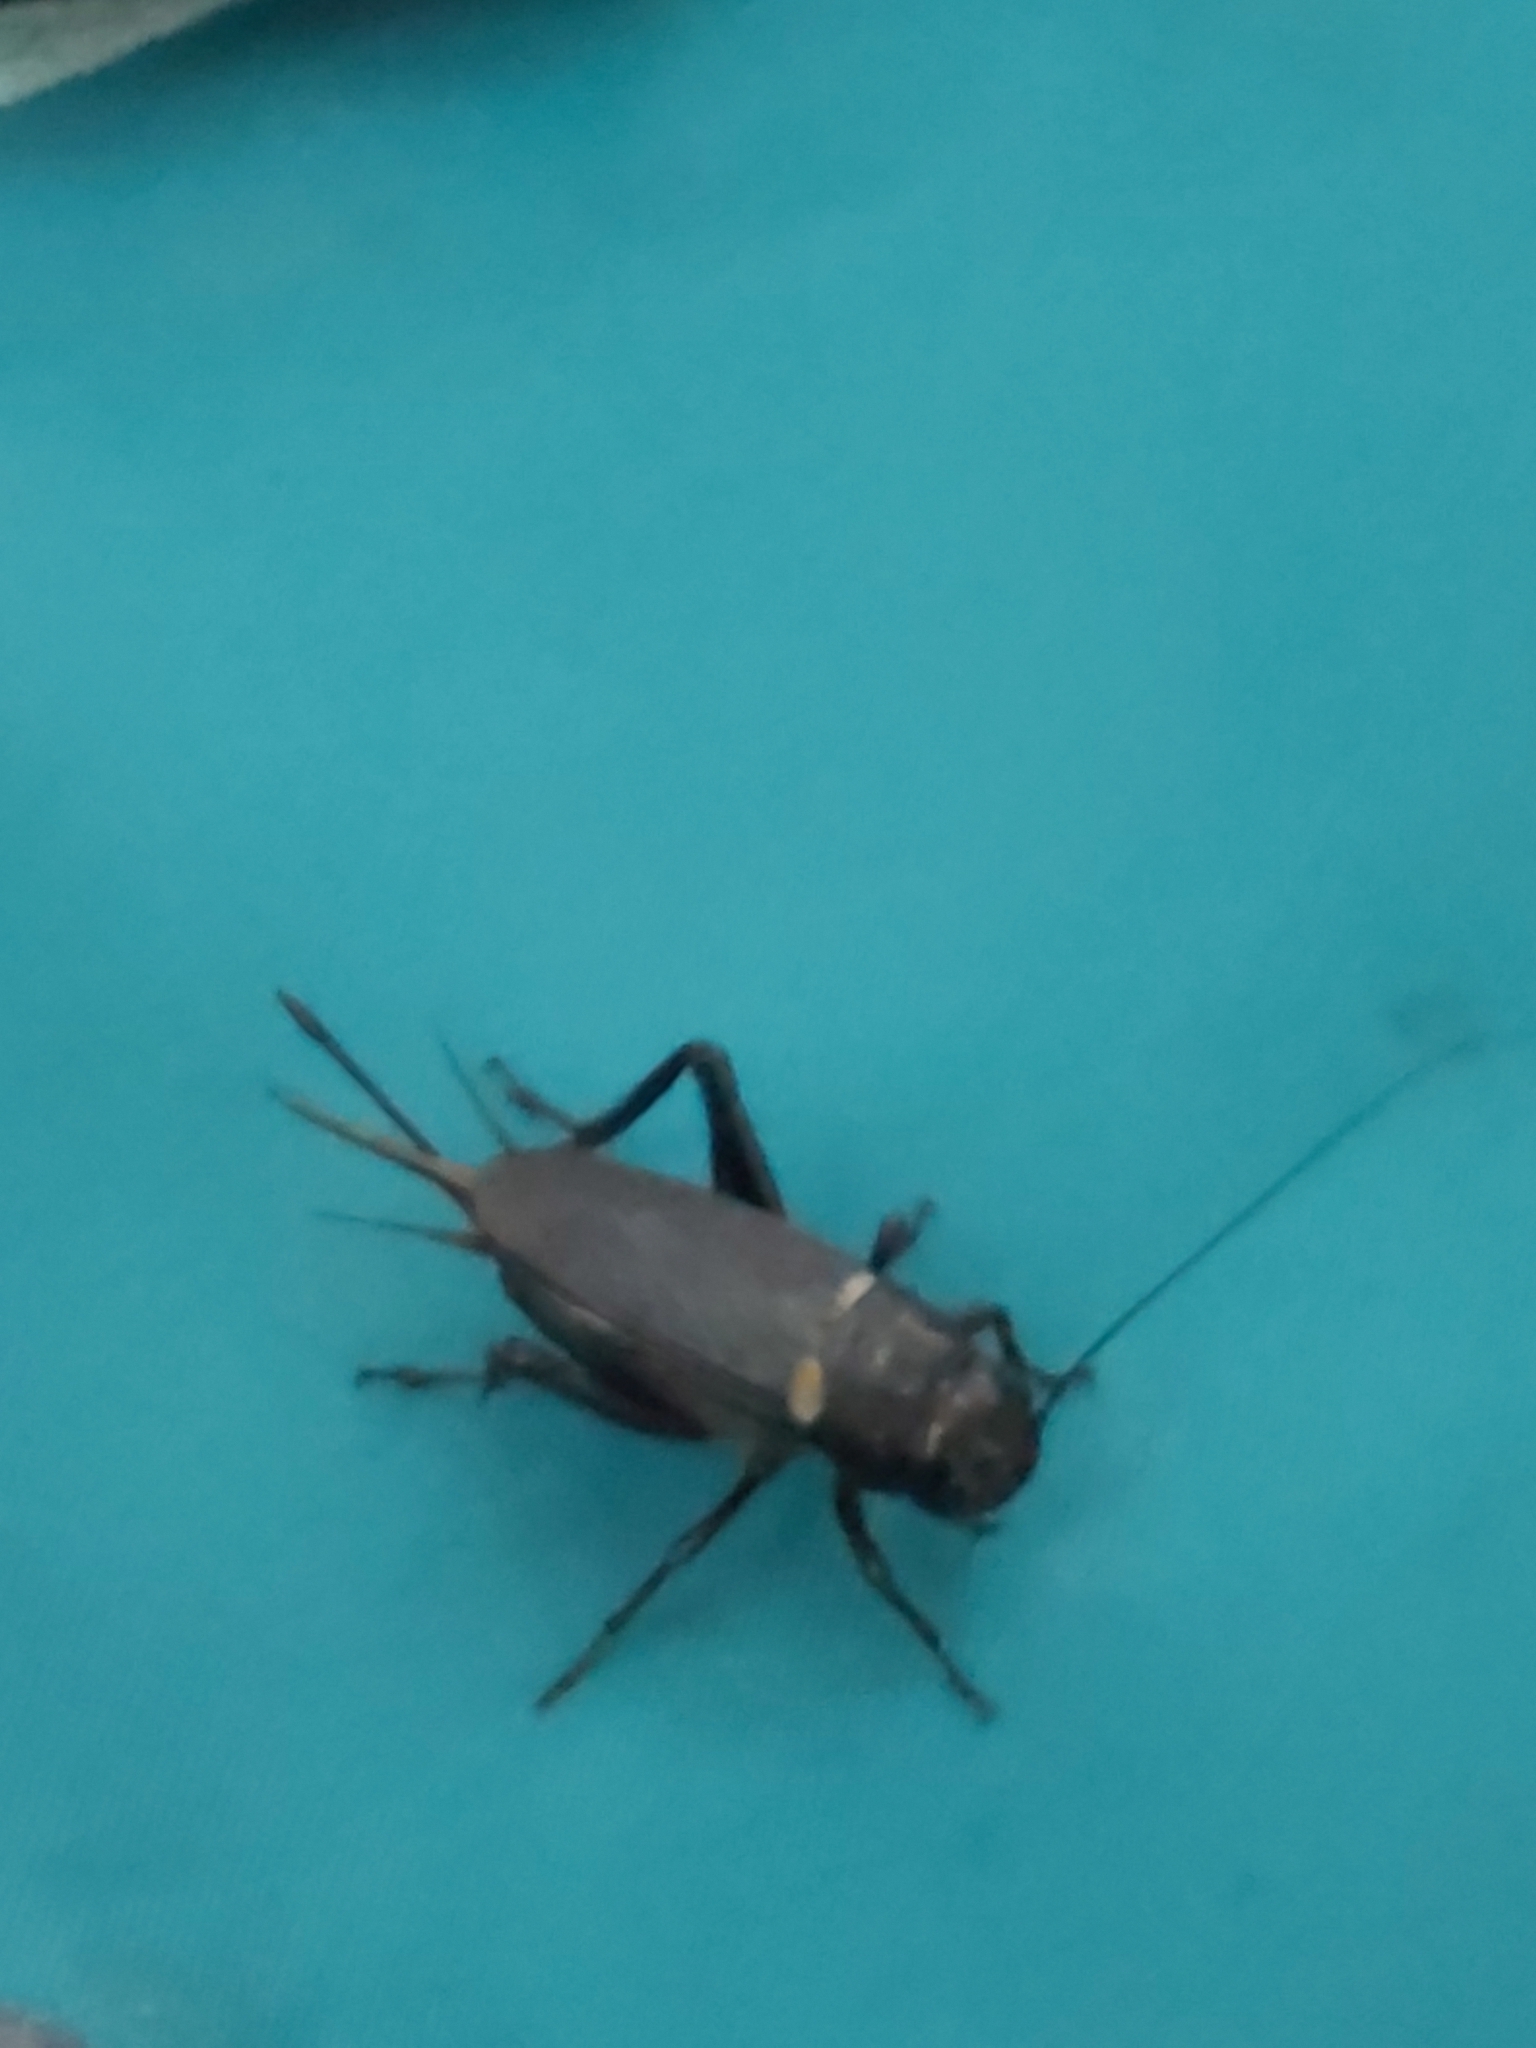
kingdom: Animalia
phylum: Arthropoda
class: Insecta
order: Orthoptera
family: Gryllidae
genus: Gryllus
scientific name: Gryllus bimaculatus
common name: Two-spotted cricket
